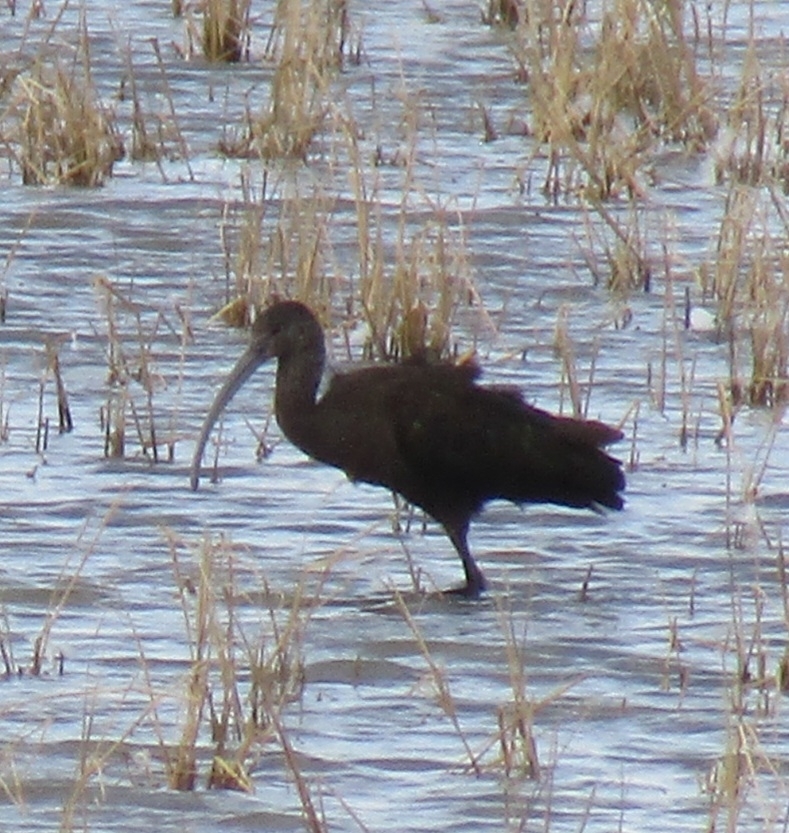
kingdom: Animalia
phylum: Chordata
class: Aves
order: Pelecaniformes
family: Threskiornithidae
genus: Plegadis
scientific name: Plegadis chihi
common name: White-faced ibis
